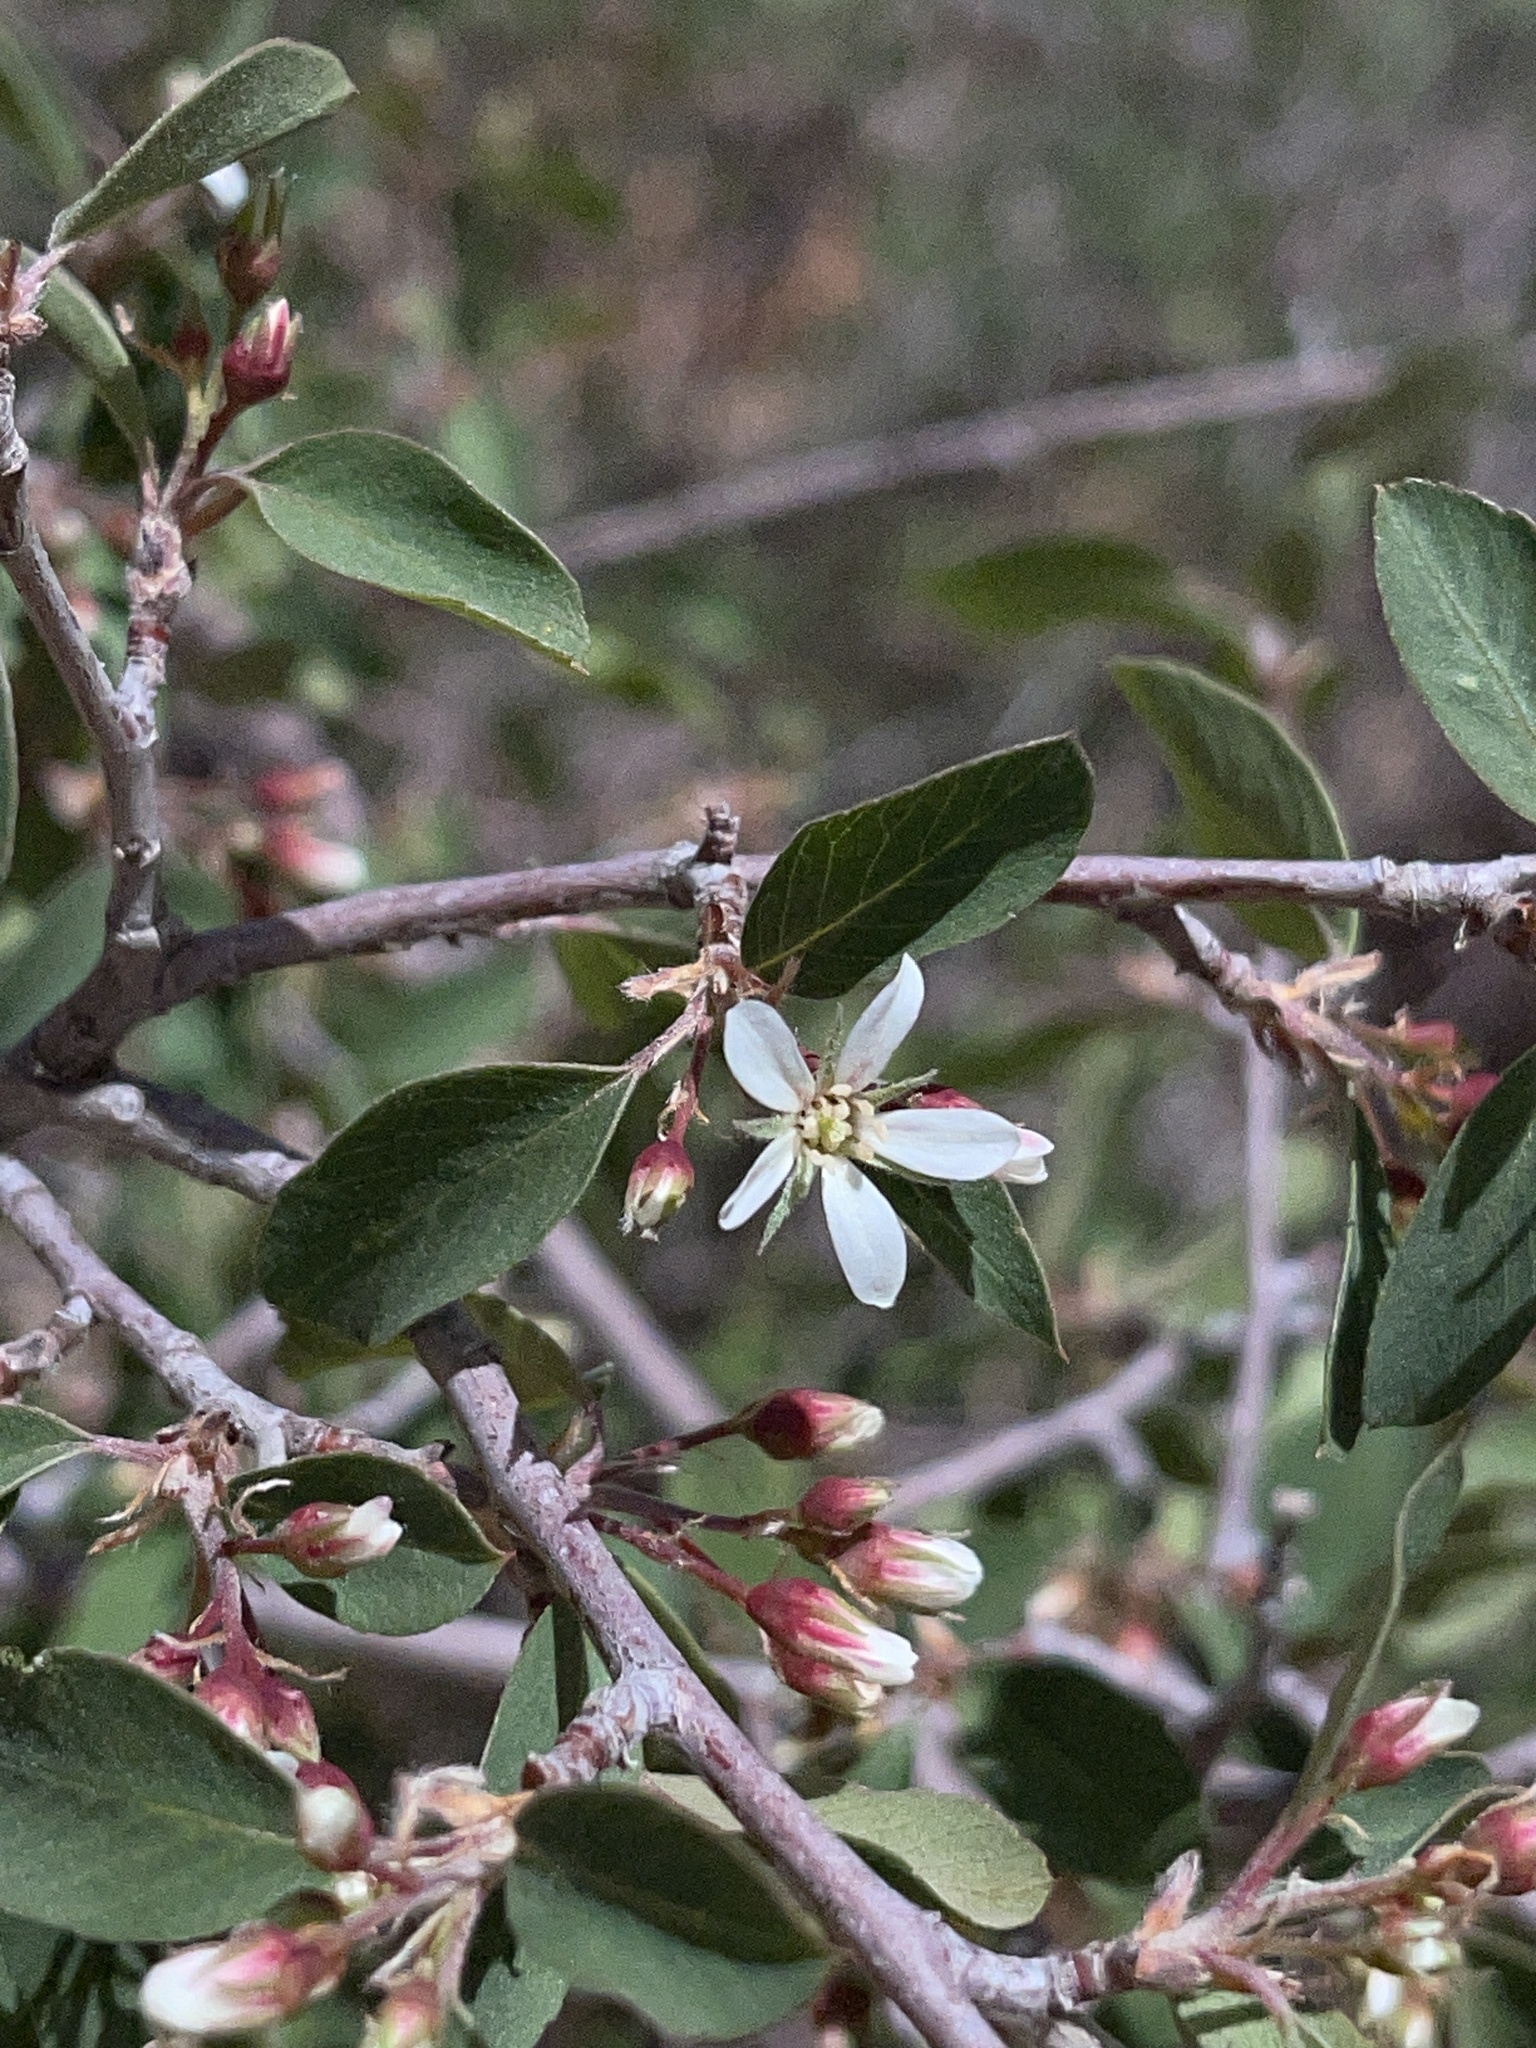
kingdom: Plantae
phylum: Tracheophyta
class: Magnoliopsida
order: Rosales
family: Rosaceae
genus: Amelanchier
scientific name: Amelanchier utahensis
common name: Utah serviceberry
